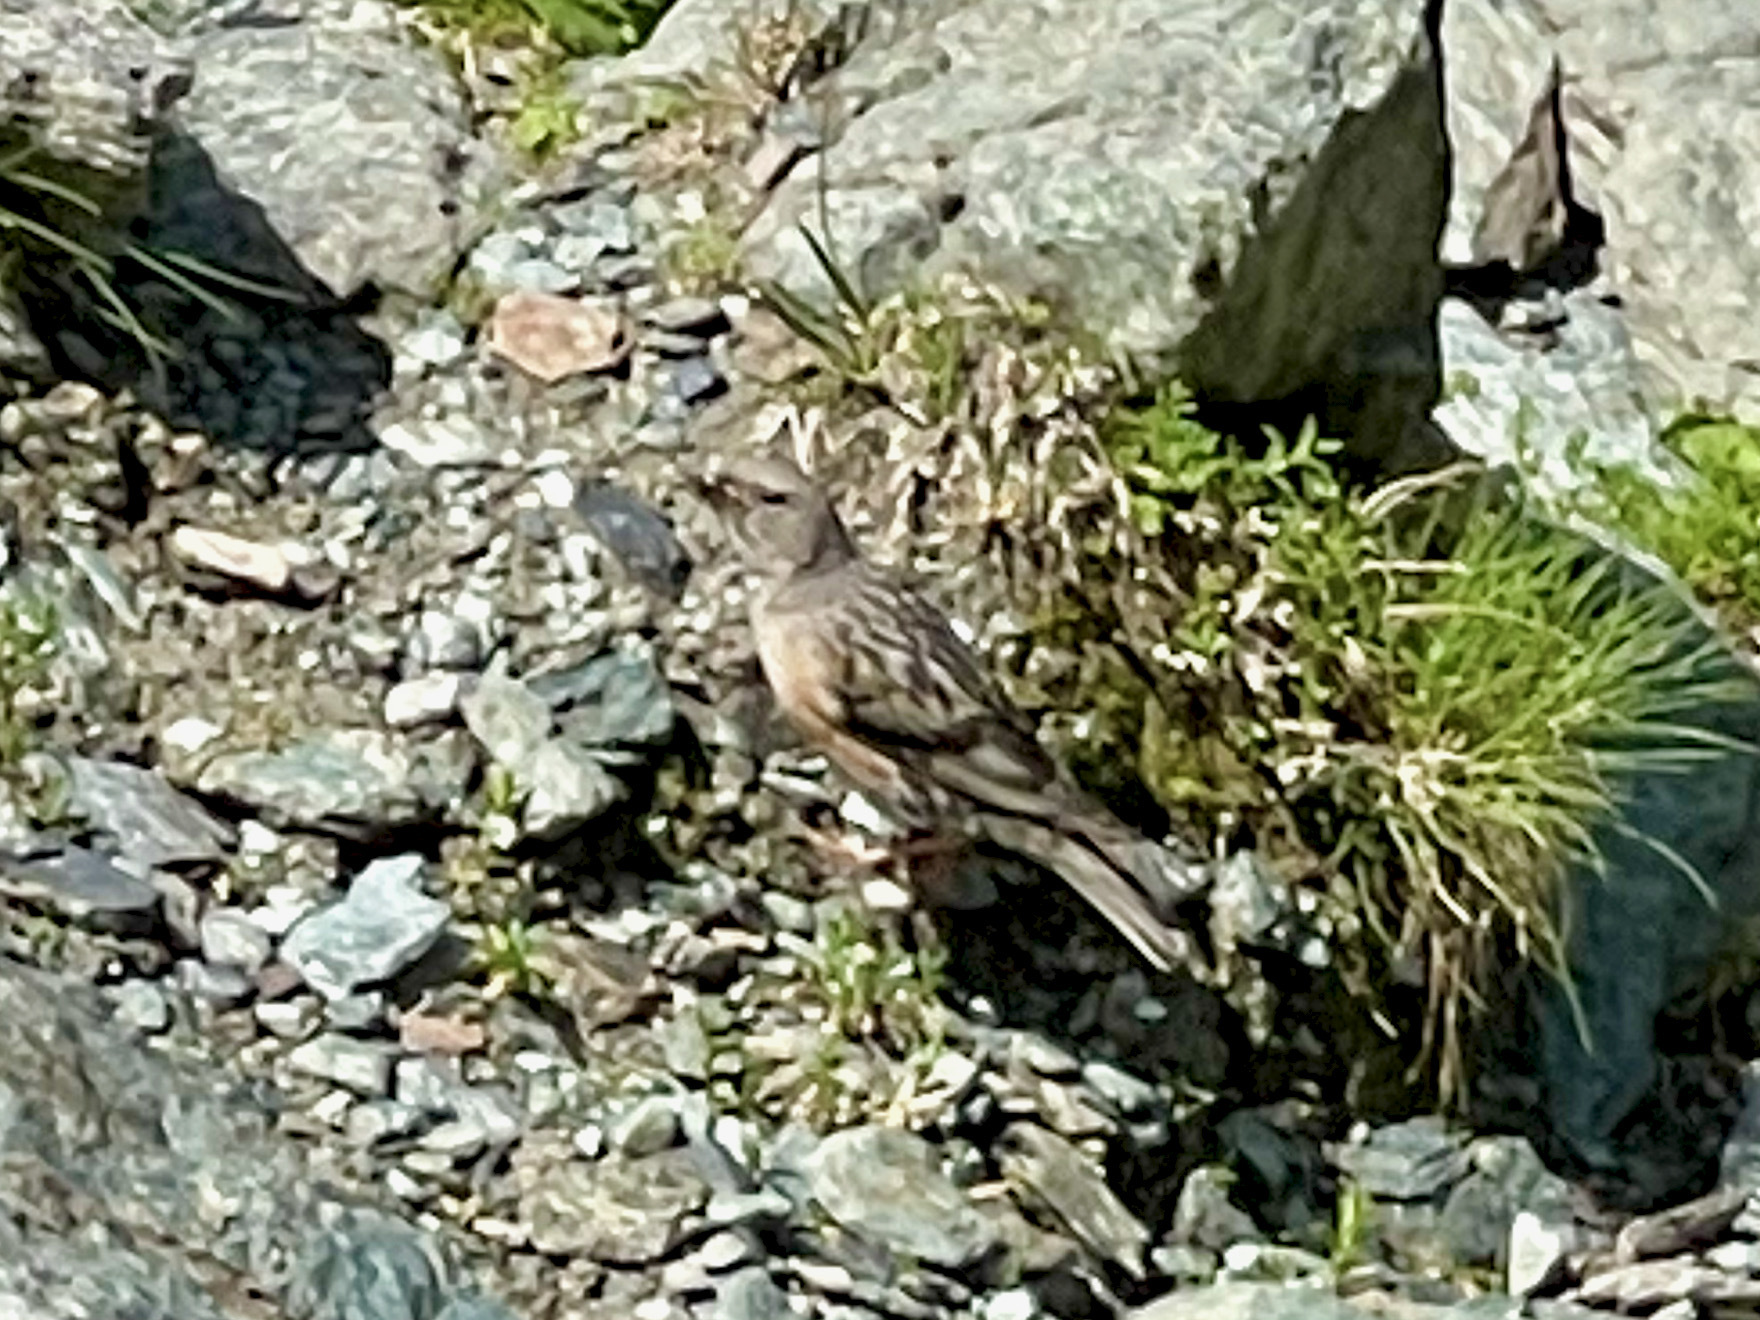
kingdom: Animalia
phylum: Chordata
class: Aves
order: Passeriformes
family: Prunellidae
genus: Prunella
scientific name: Prunella collaris
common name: Alpine accentor
